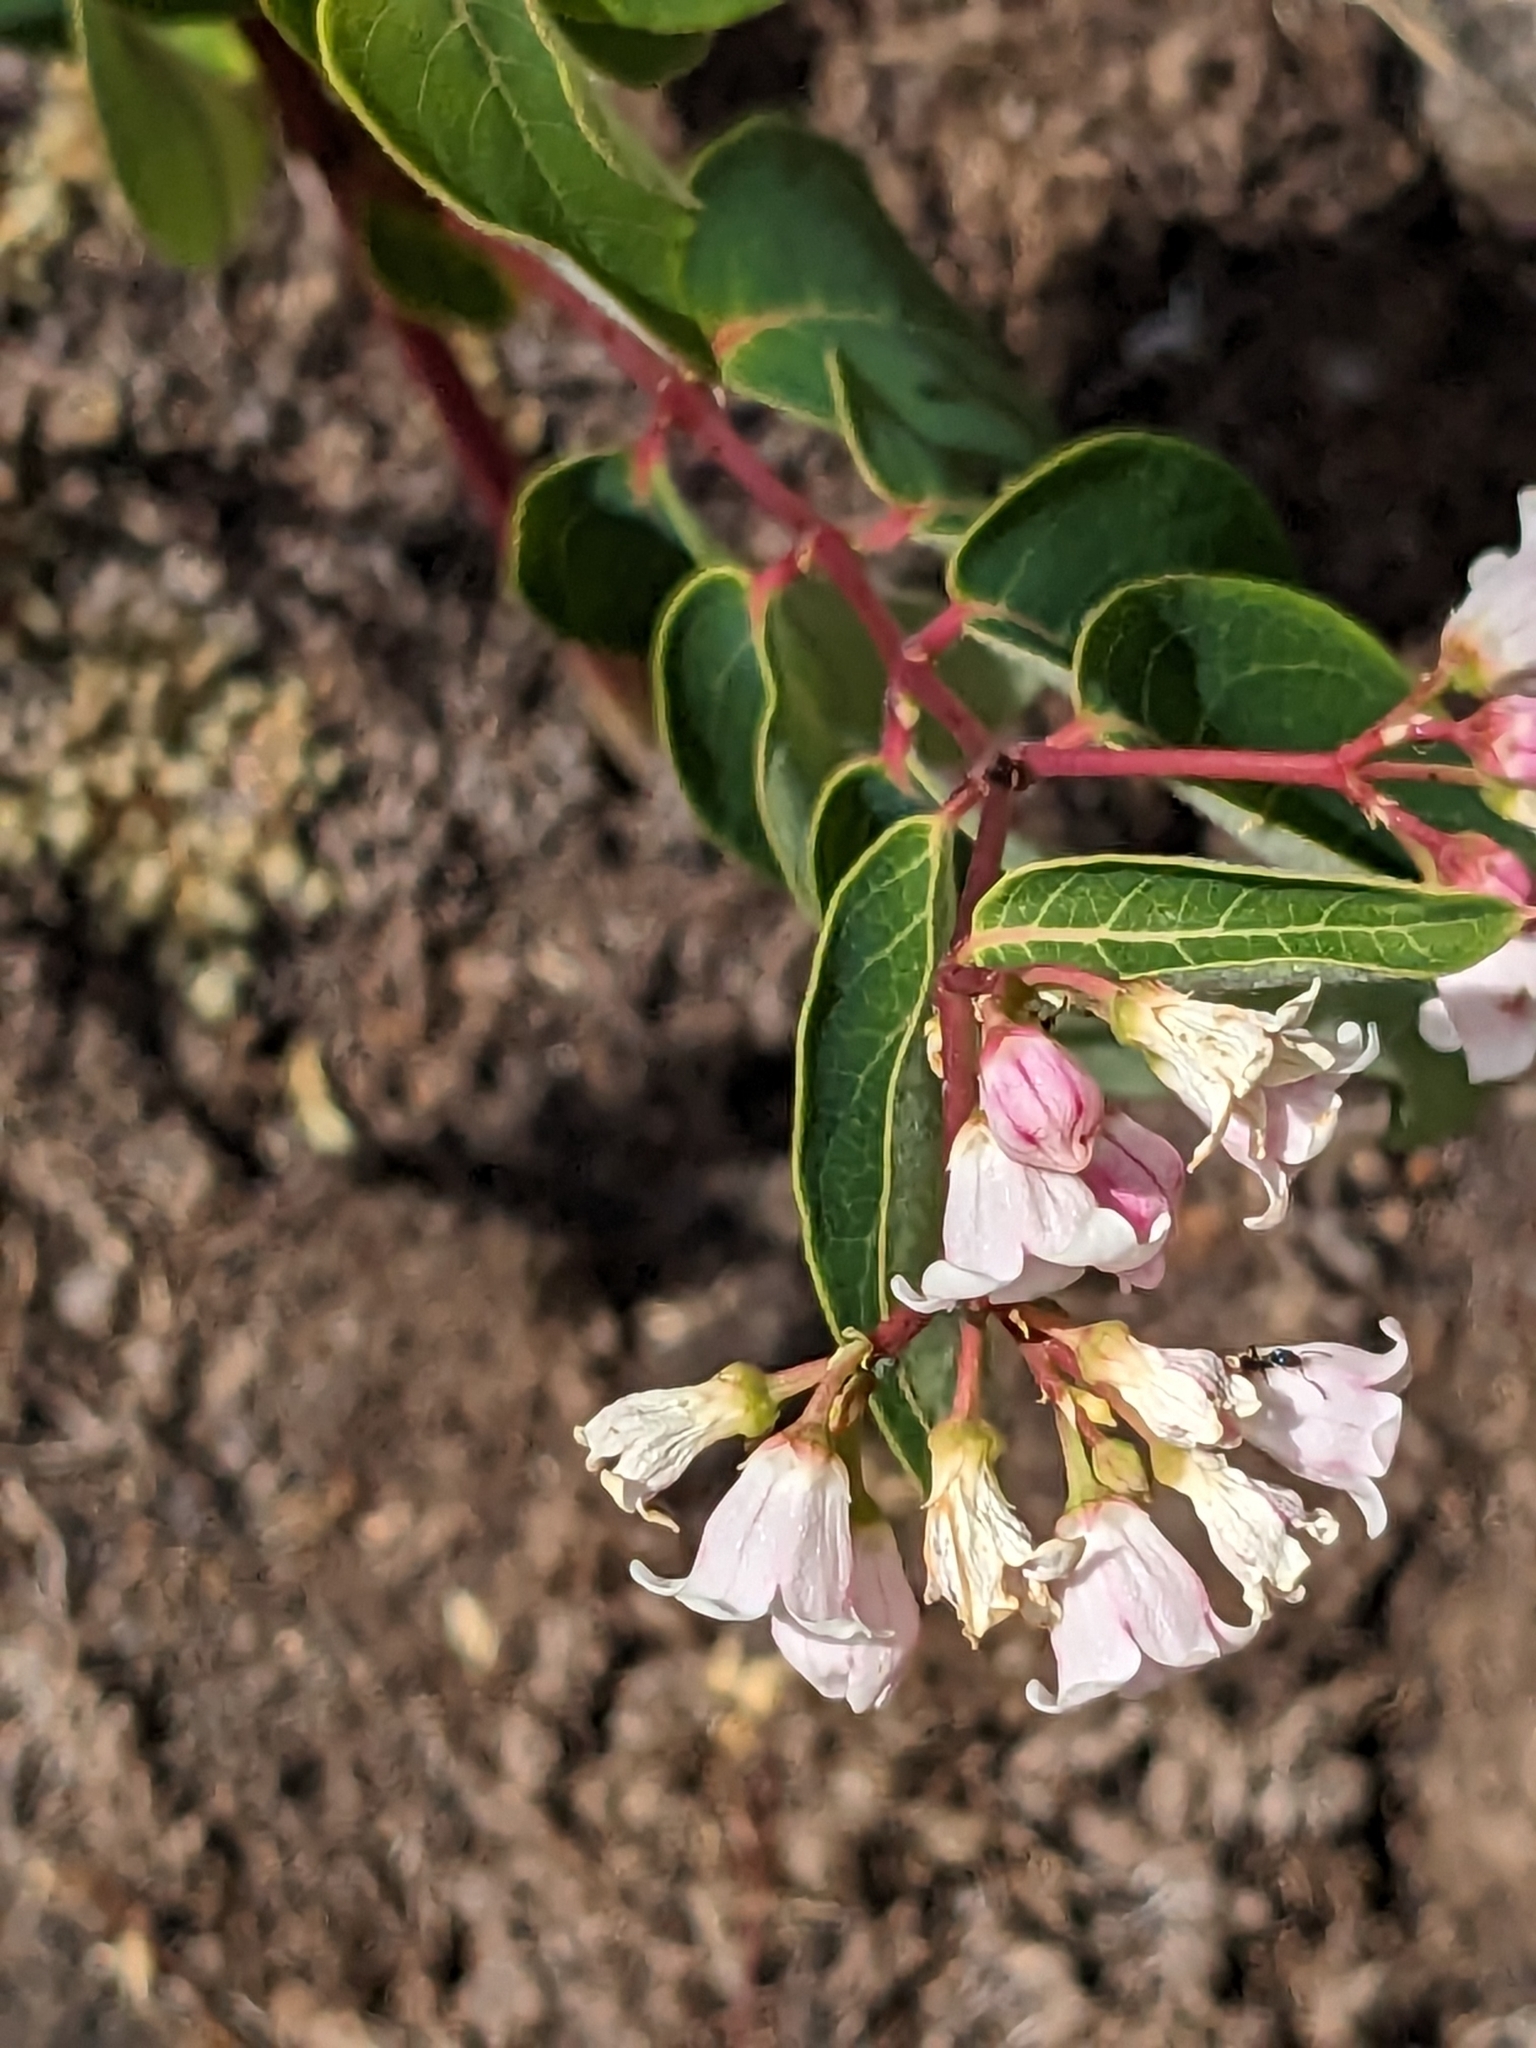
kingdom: Plantae
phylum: Tracheophyta
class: Magnoliopsida
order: Gentianales
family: Apocynaceae
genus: Apocynum
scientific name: Apocynum androsaemifolium
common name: Spreading dogbane
